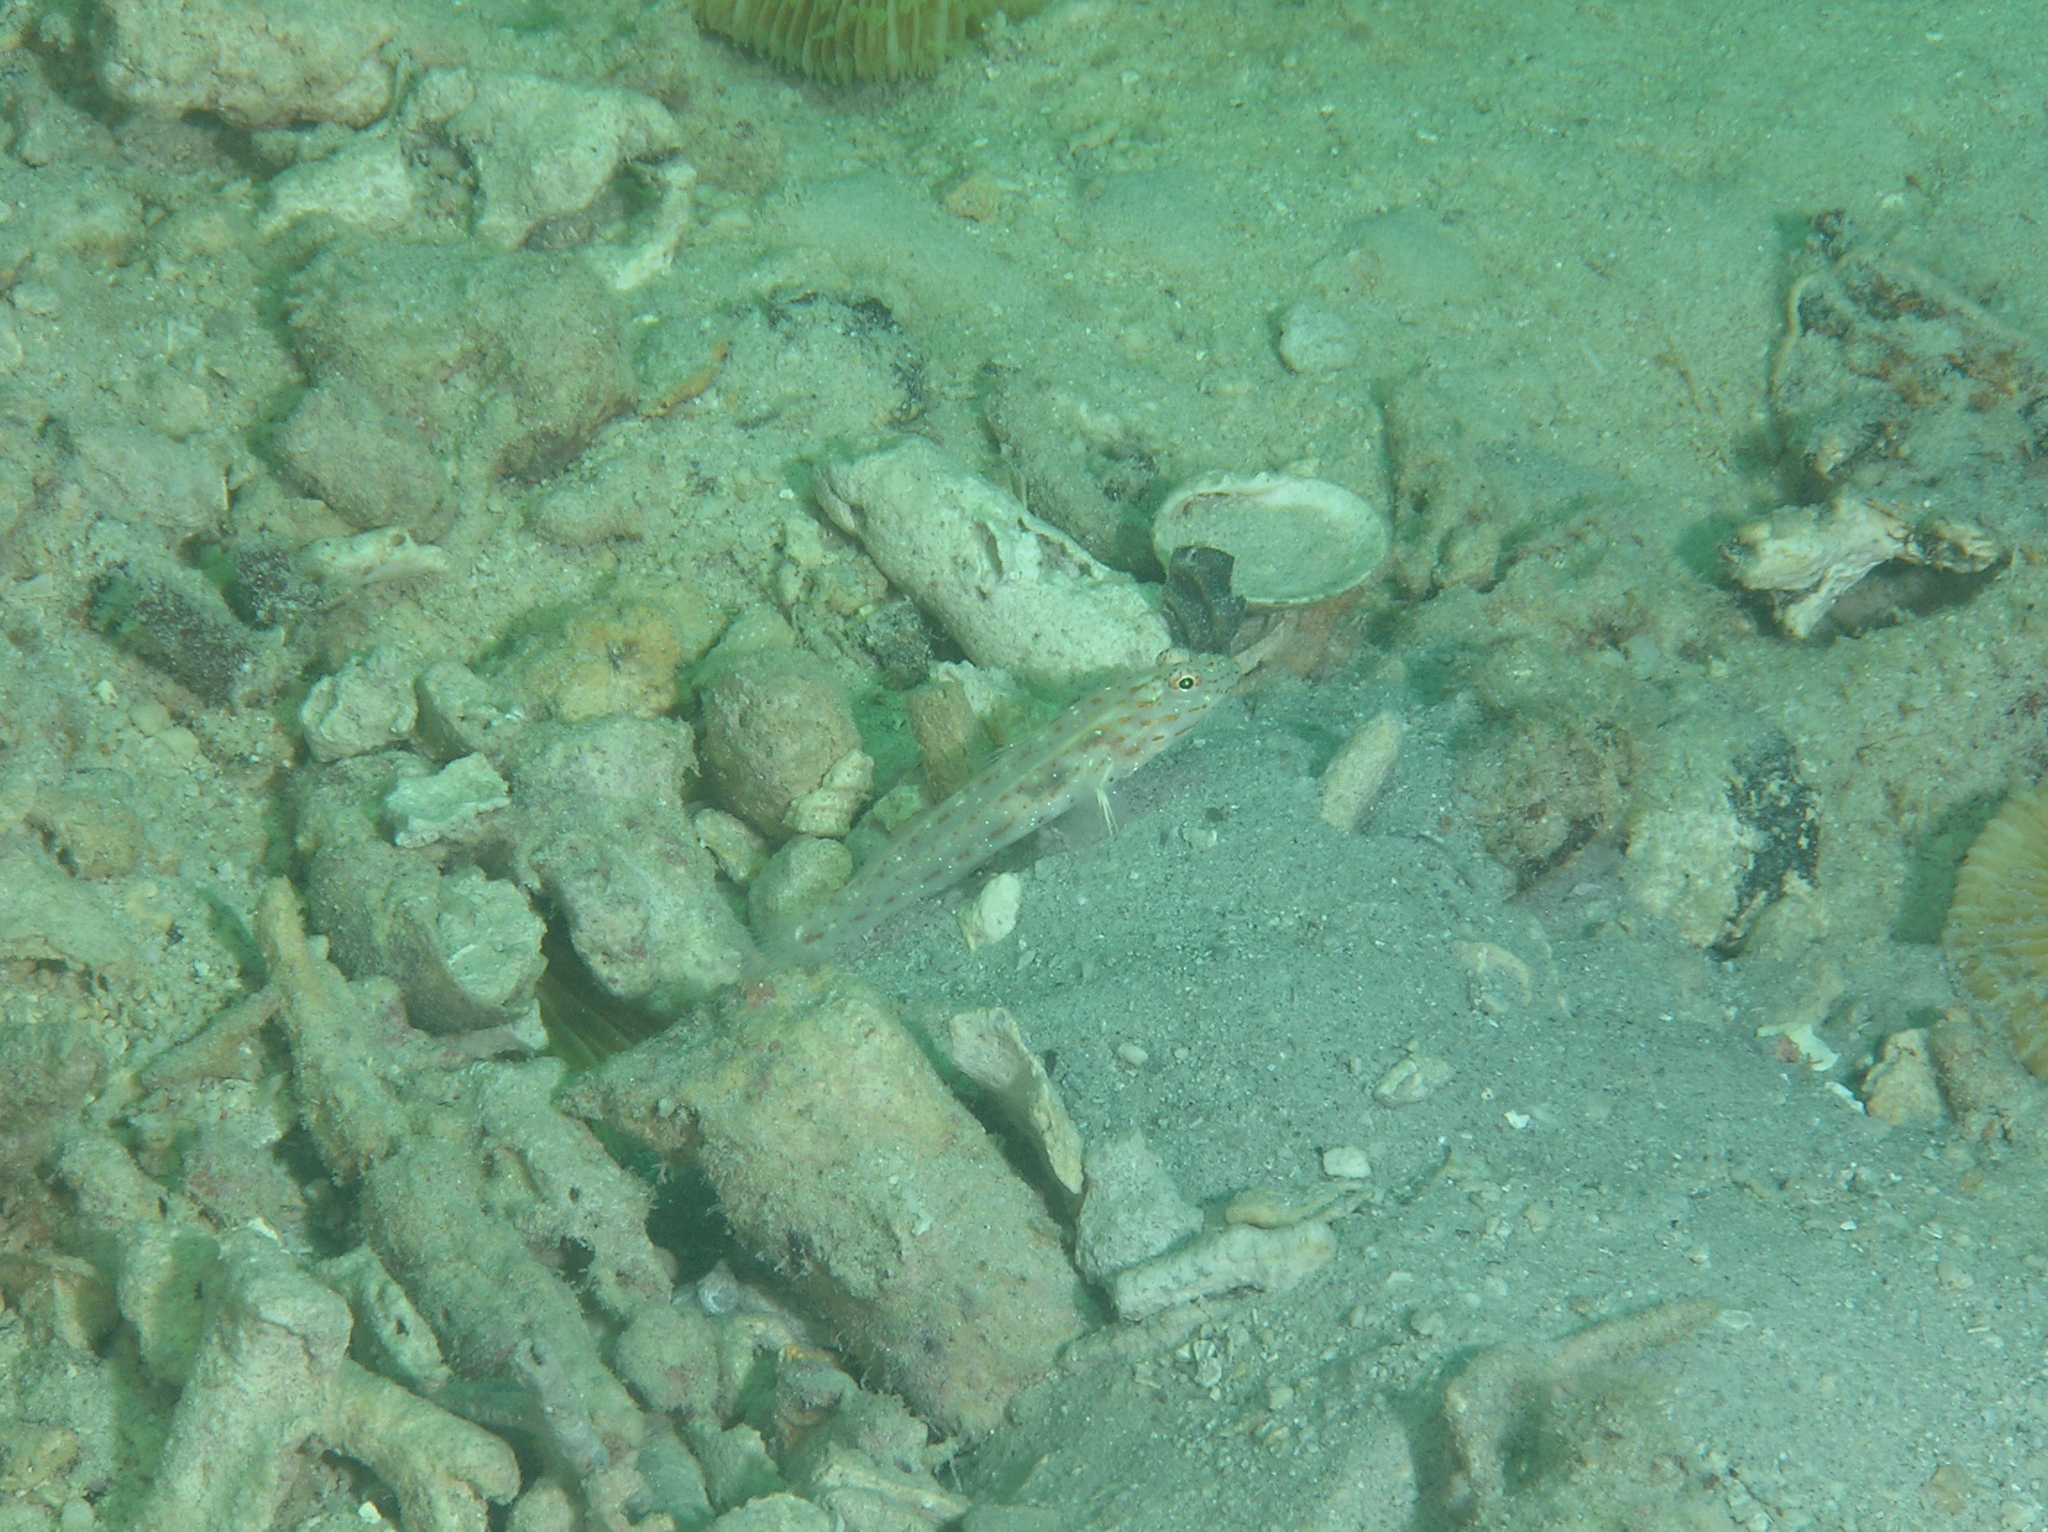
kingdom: Animalia
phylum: Chordata
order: Perciformes
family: Gobiidae
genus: Ctenogobiops
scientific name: Ctenogobiops crocineus
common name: Silverspot shrimpgoby
